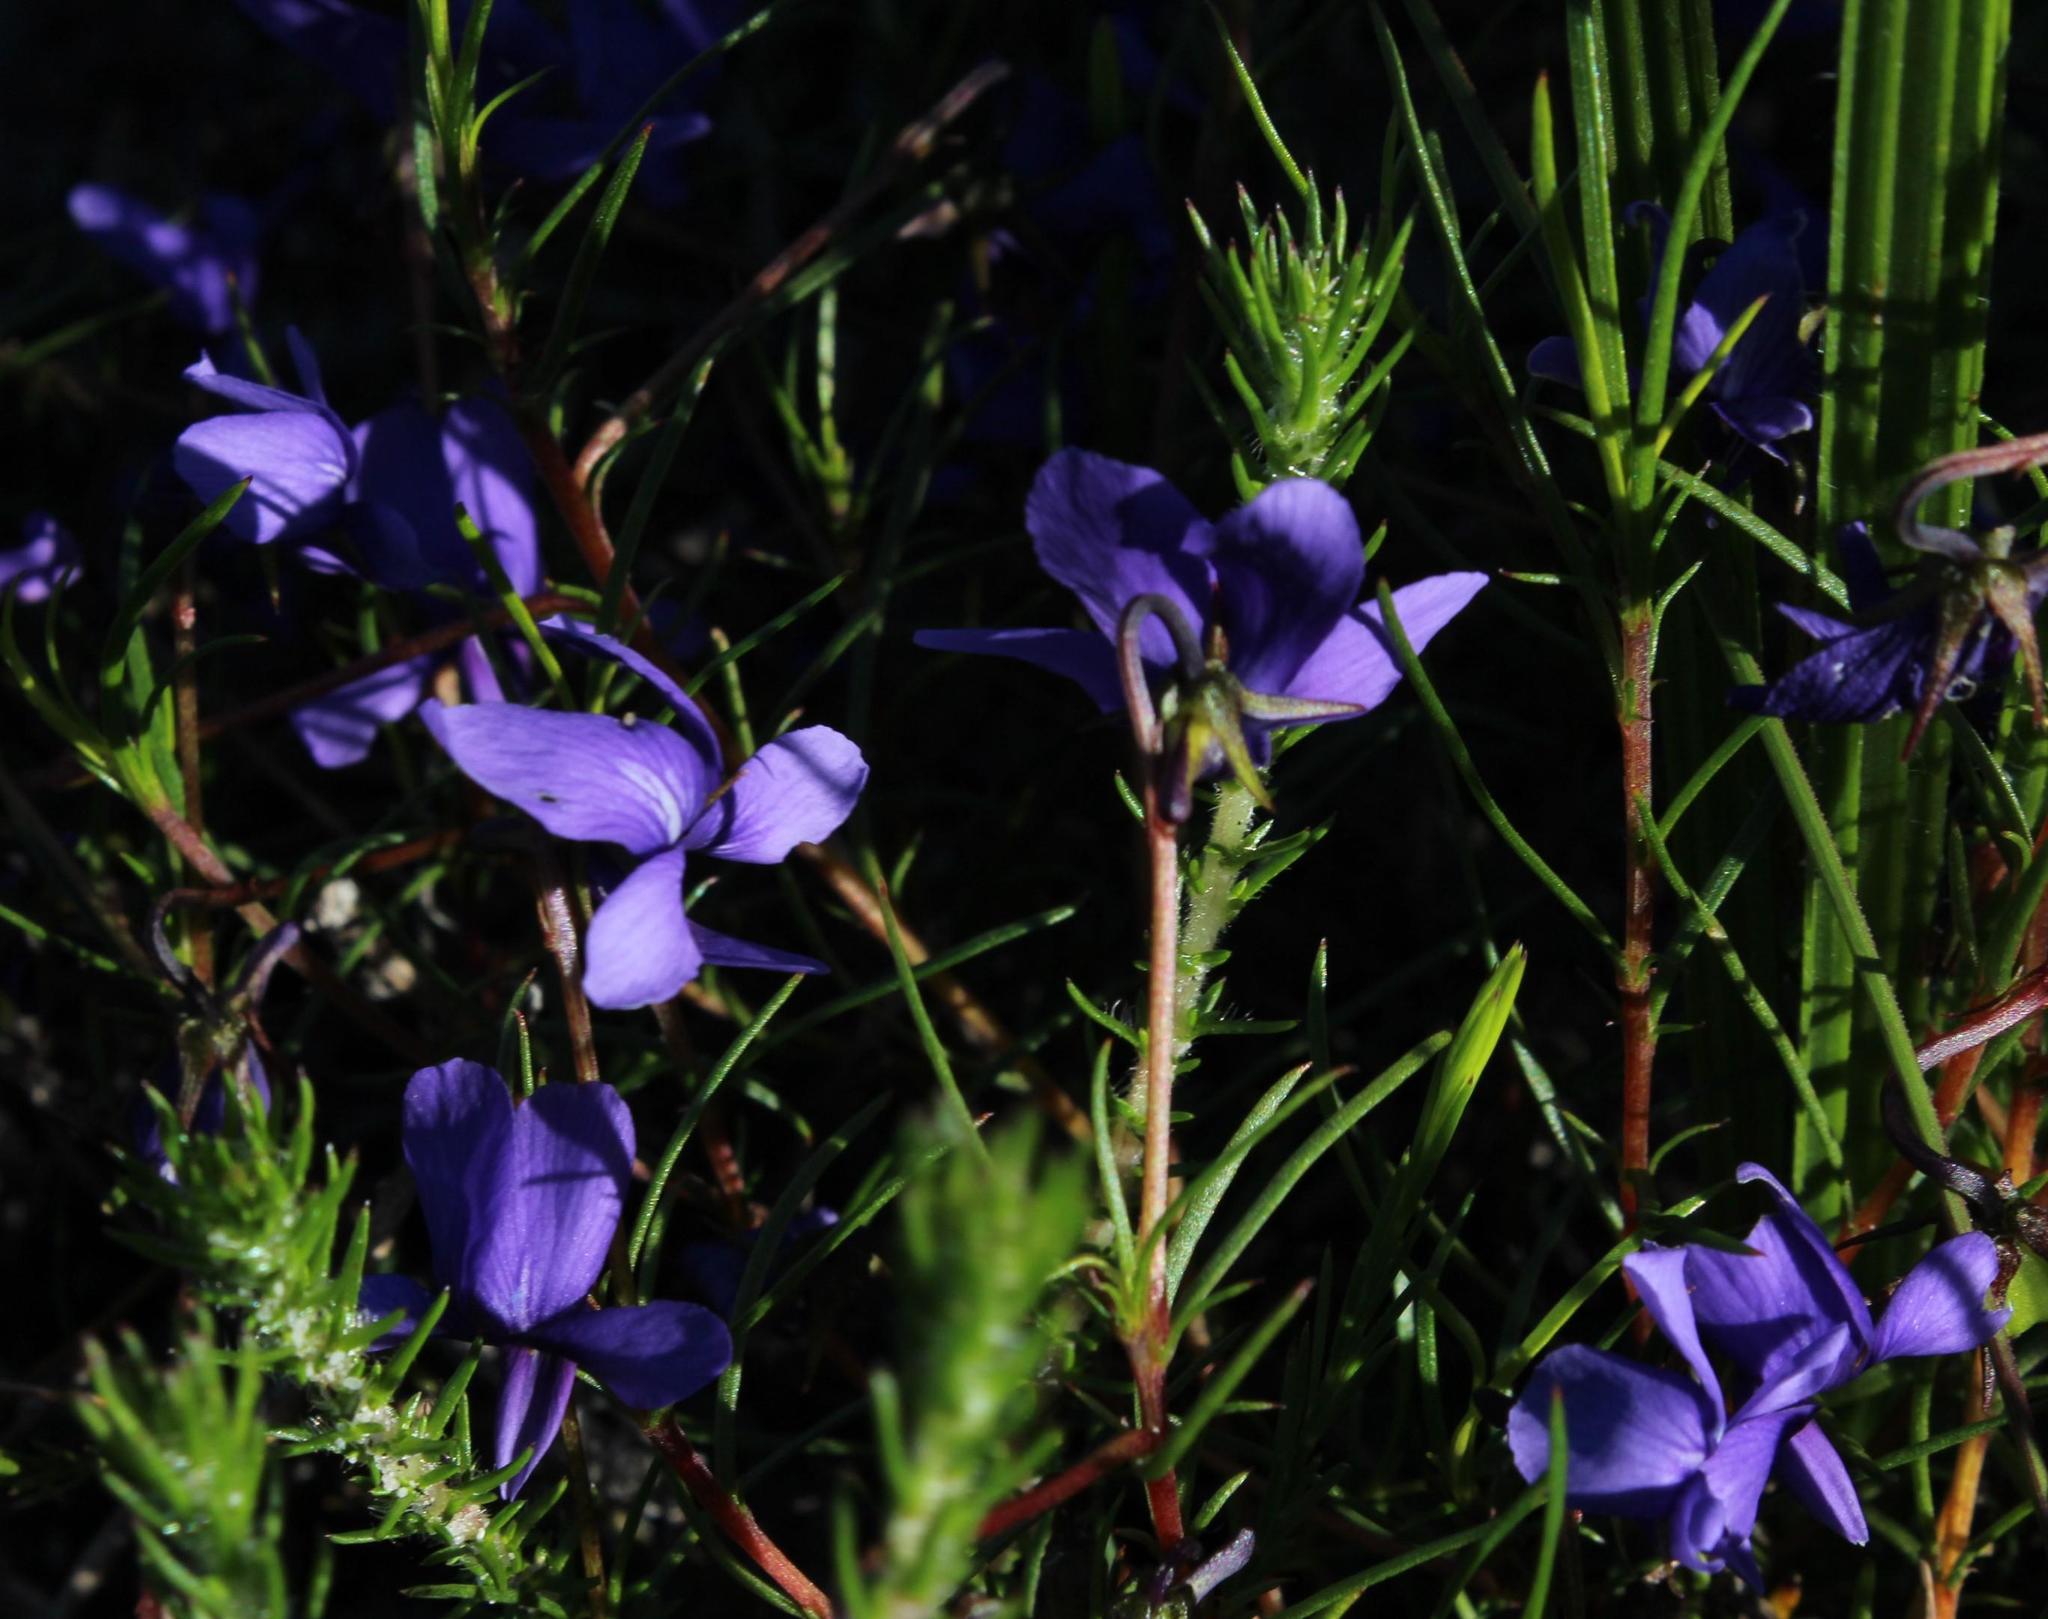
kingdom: Plantae
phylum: Tracheophyta
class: Magnoliopsida
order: Malpighiales
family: Violaceae
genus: Viola
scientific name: Viola decumbens
